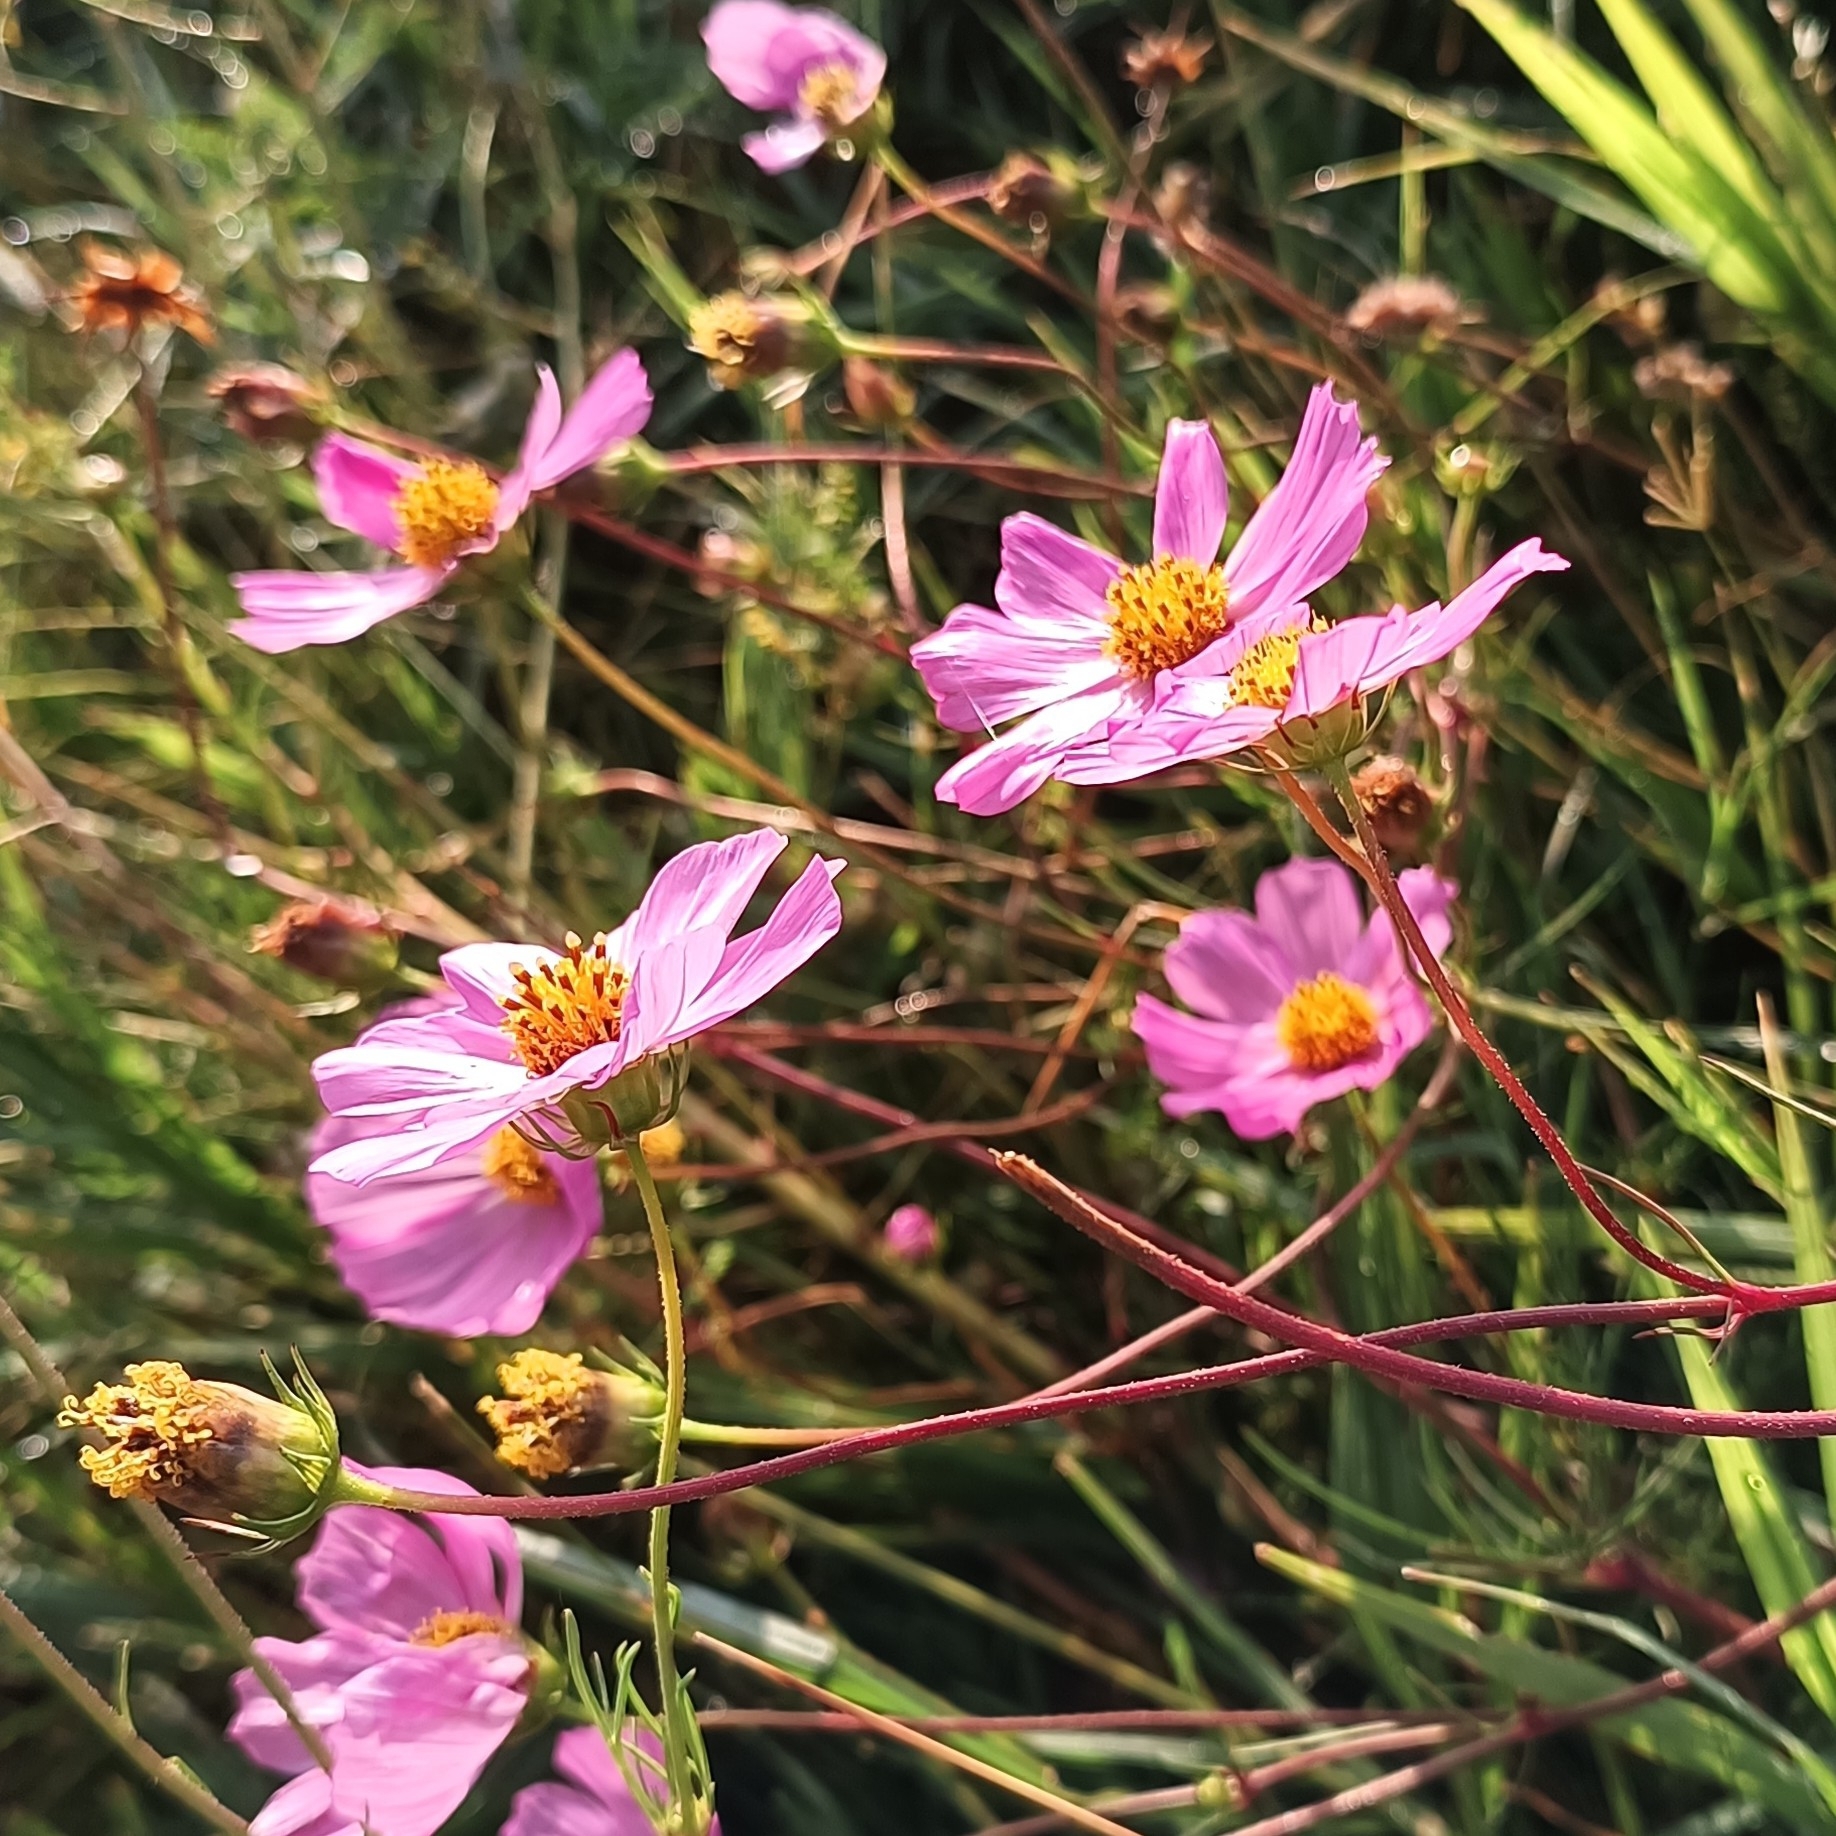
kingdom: Plantae
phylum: Tracheophyta
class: Magnoliopsida
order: Asterales
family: Asteraceae
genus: Cosmos
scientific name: Cosmos bipinnatus
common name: Garden cosmos
